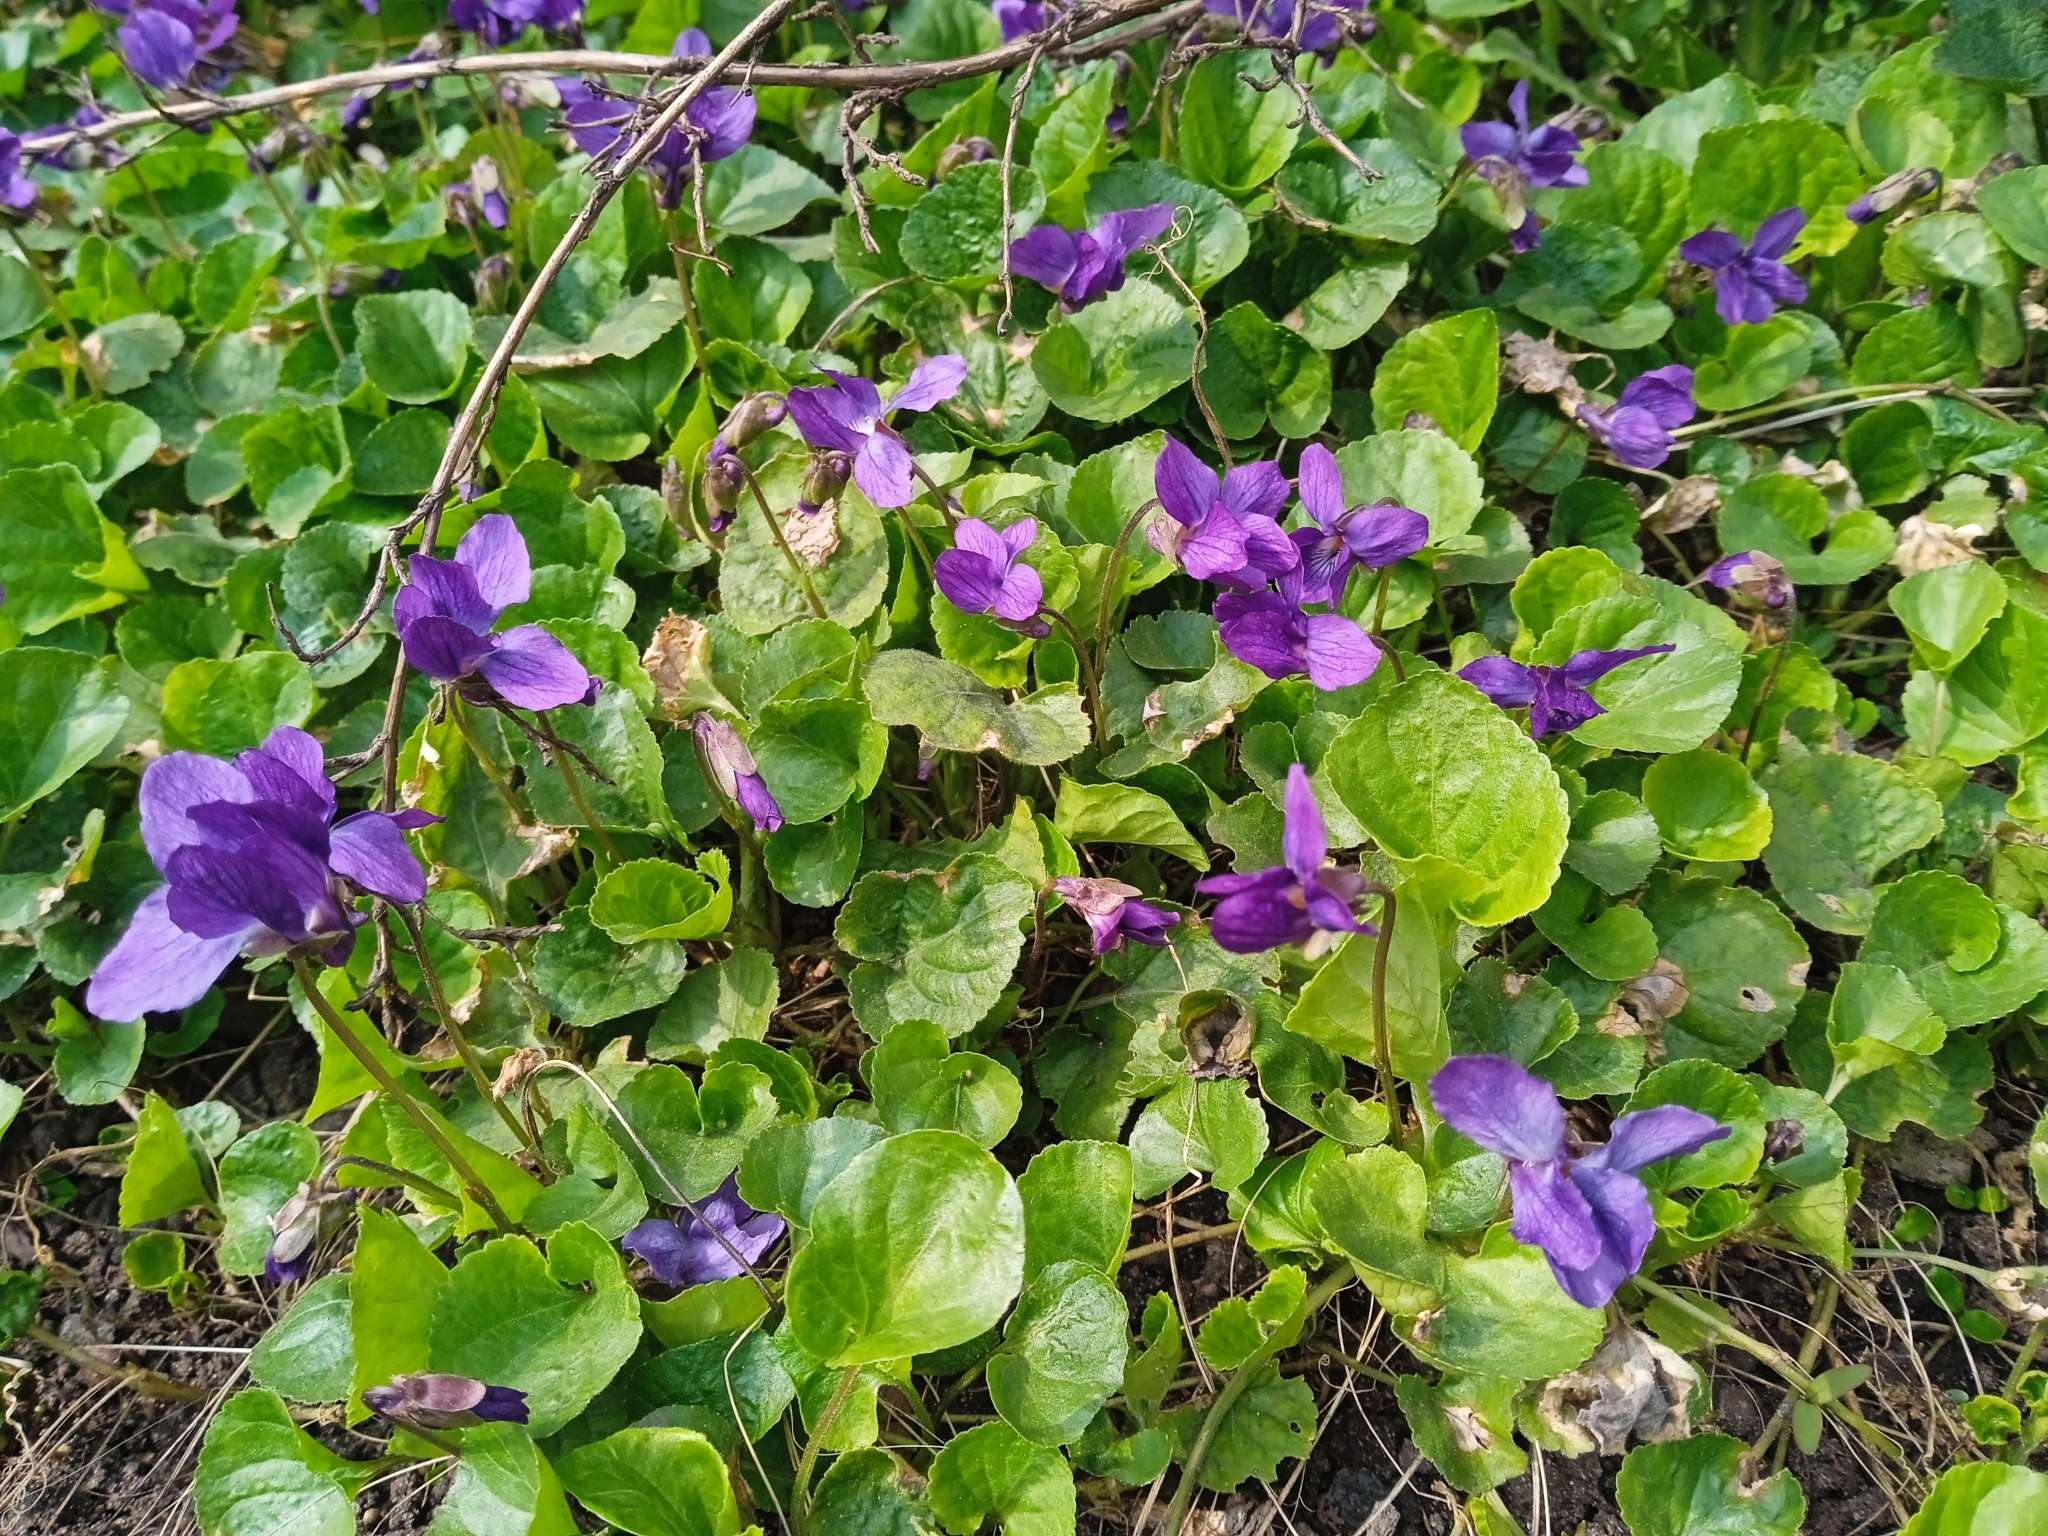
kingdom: Plantae
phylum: Tracheophyta
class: Magnoliopsida
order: Malpighiales
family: Violaceae
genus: Viola
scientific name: Viola odorata
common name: Sweet violet
